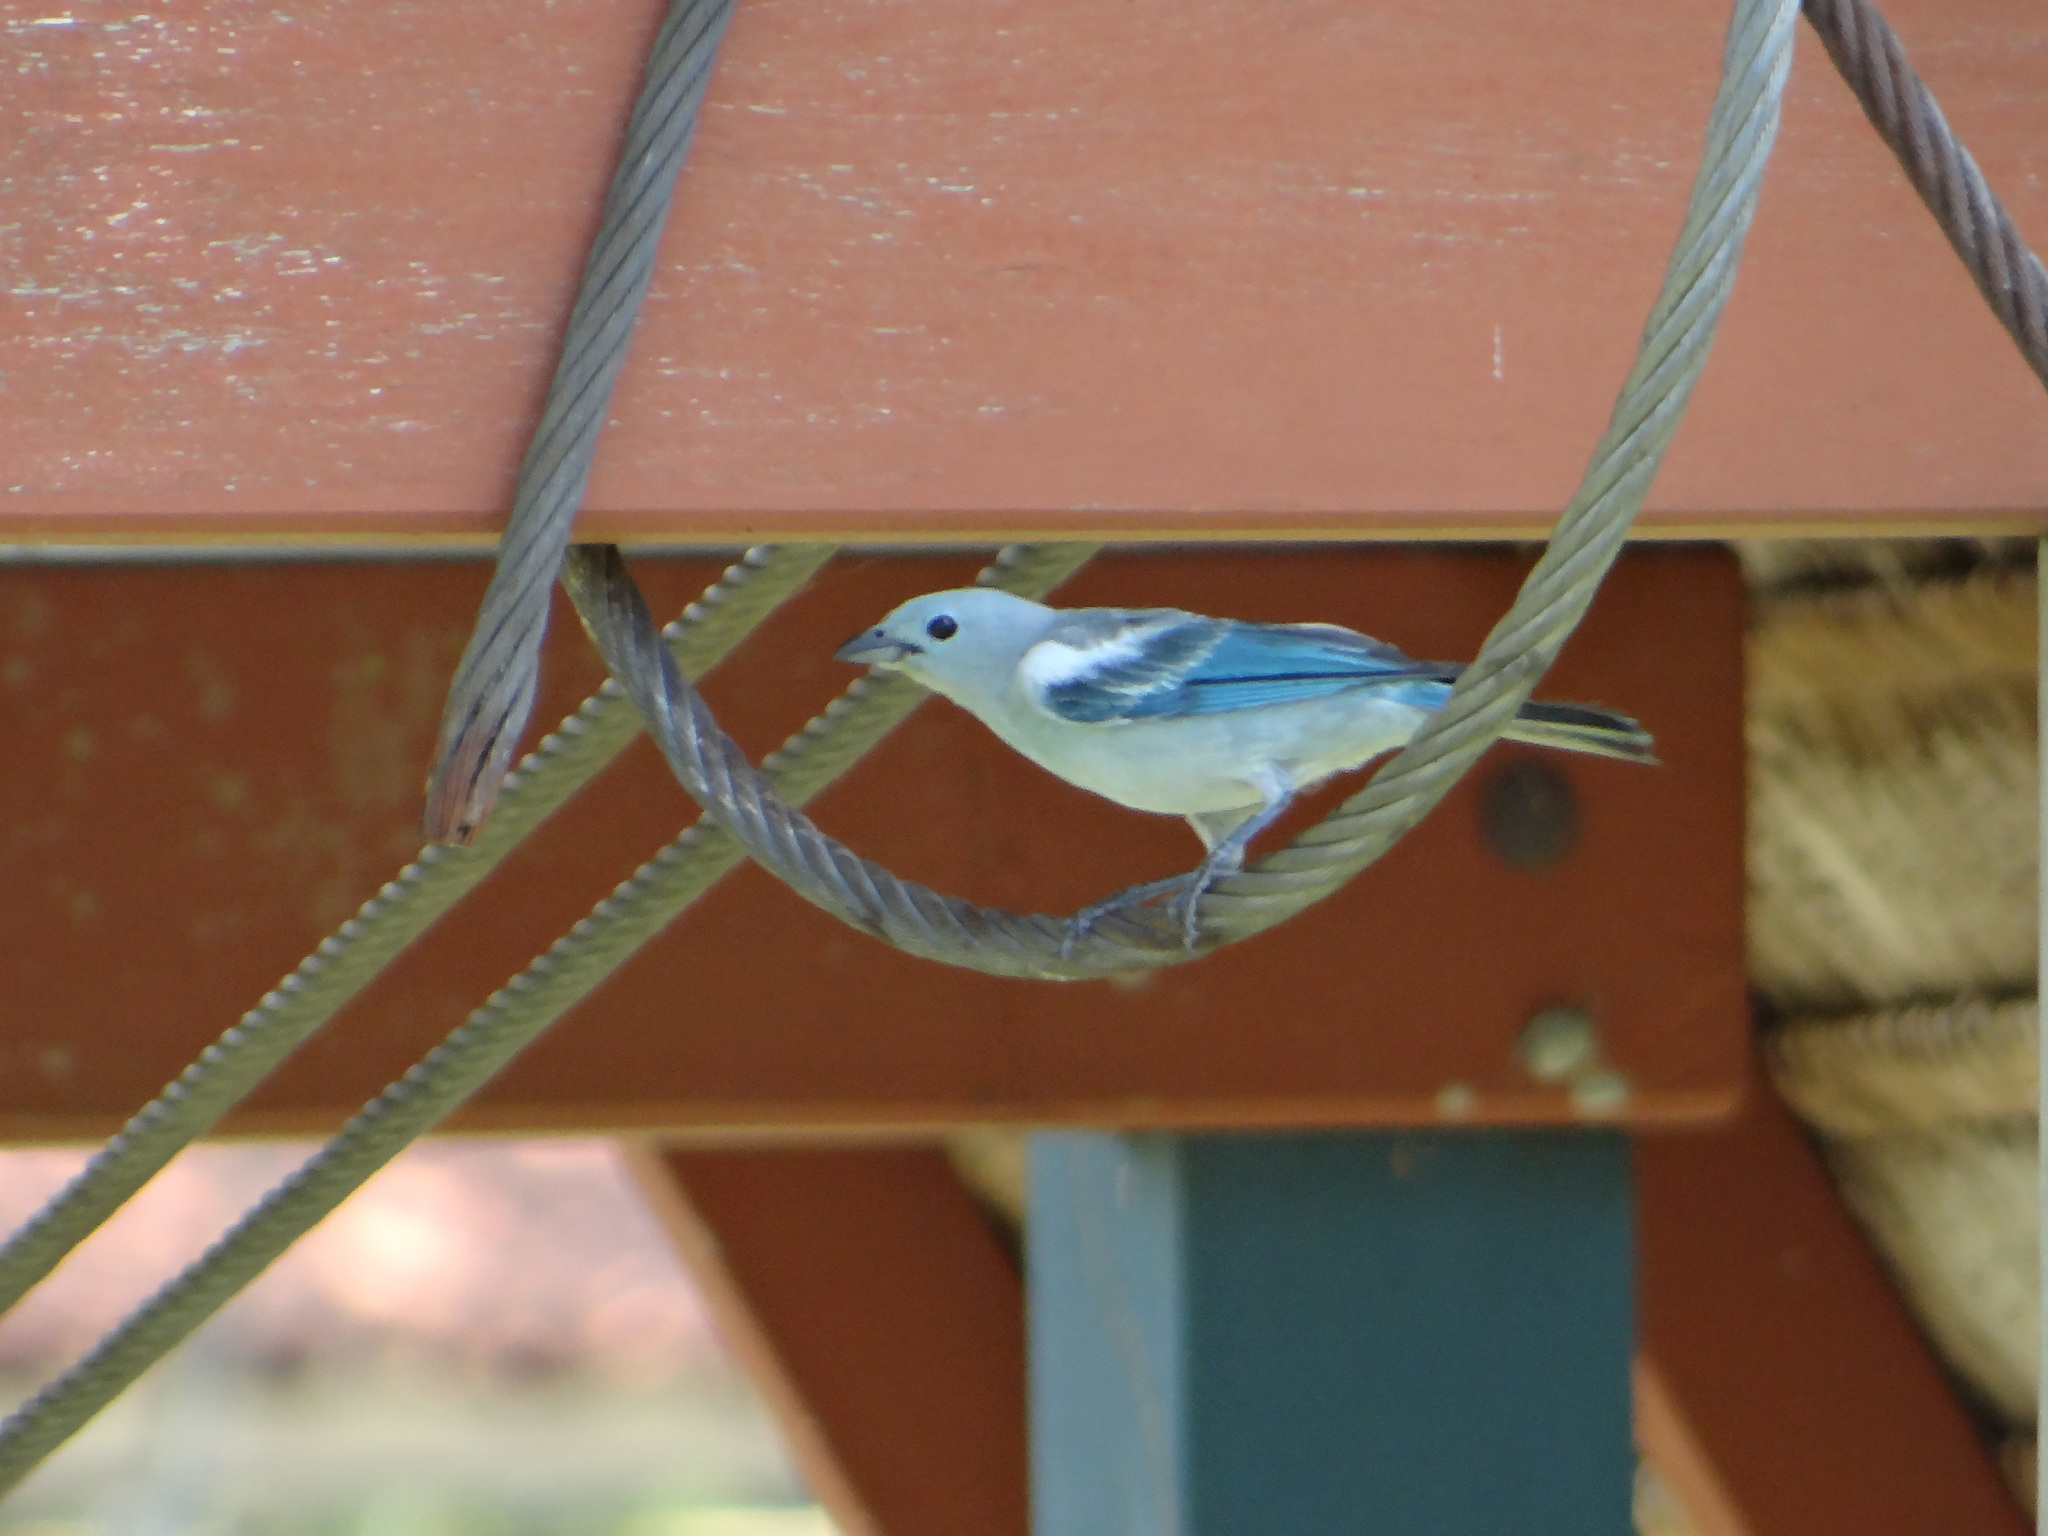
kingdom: Animalia
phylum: Chordata
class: Aves
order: Passeriformes
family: Thraupidae
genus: Thraupis
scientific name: Thraupis episcopus
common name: Blue-grey tanager
